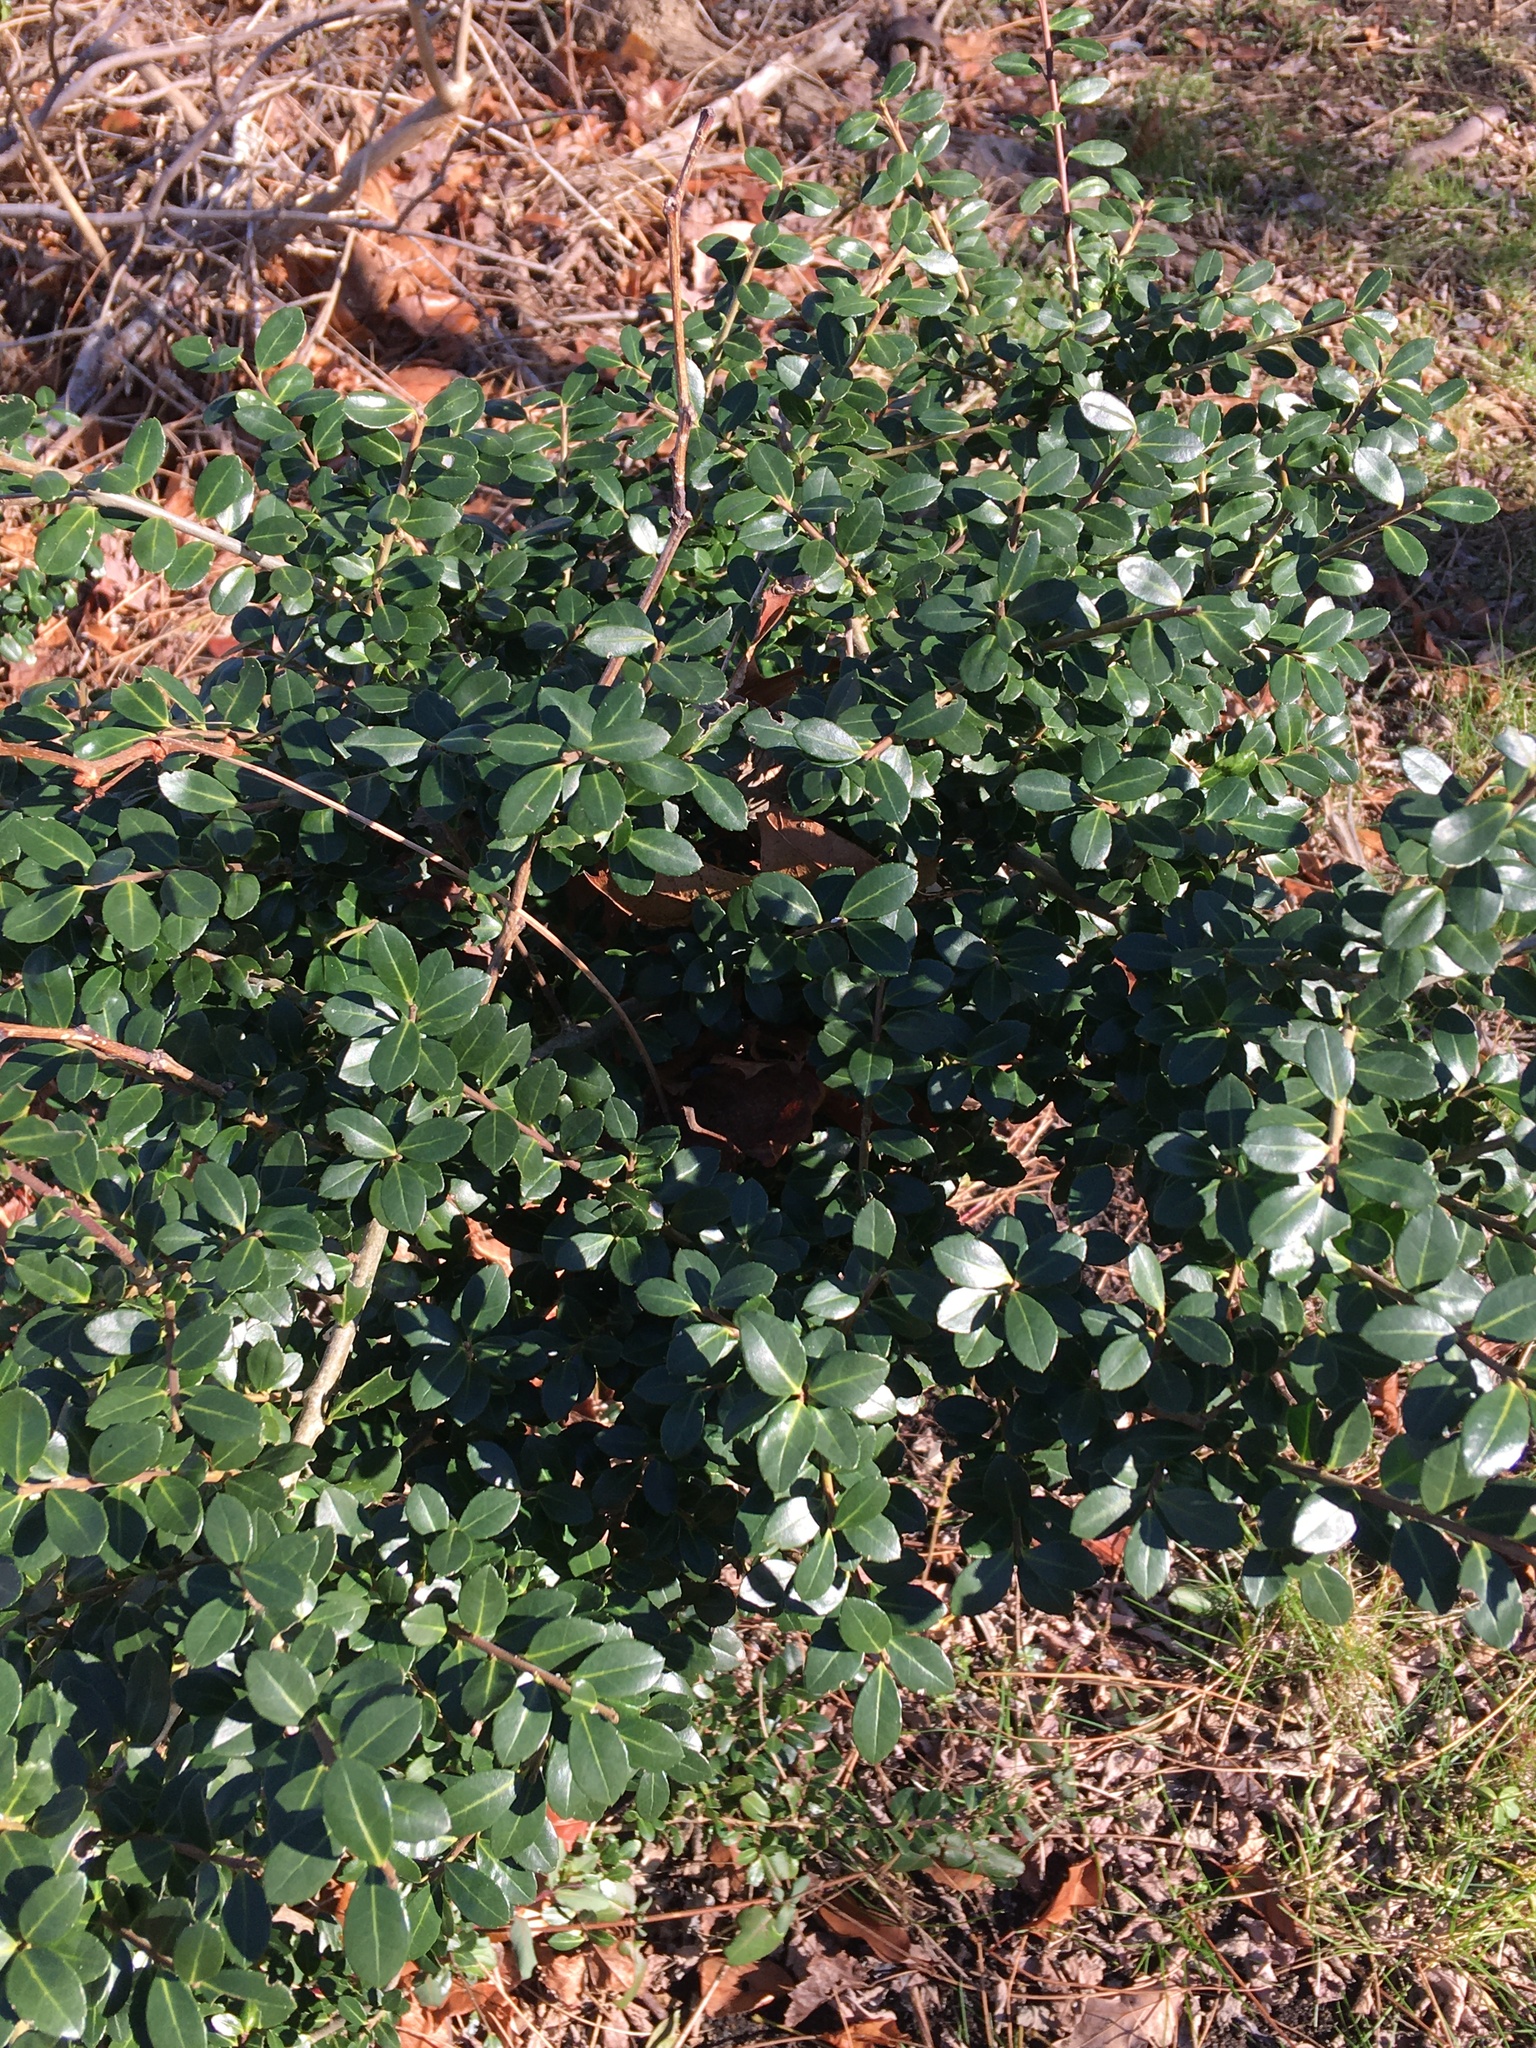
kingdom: Plantae
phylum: Tracheophyta
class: Magnoliopsida
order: Aquifoliales
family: Aquifoliaceae
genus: Ilex
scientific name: Ilex crenata
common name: Japanese holly
